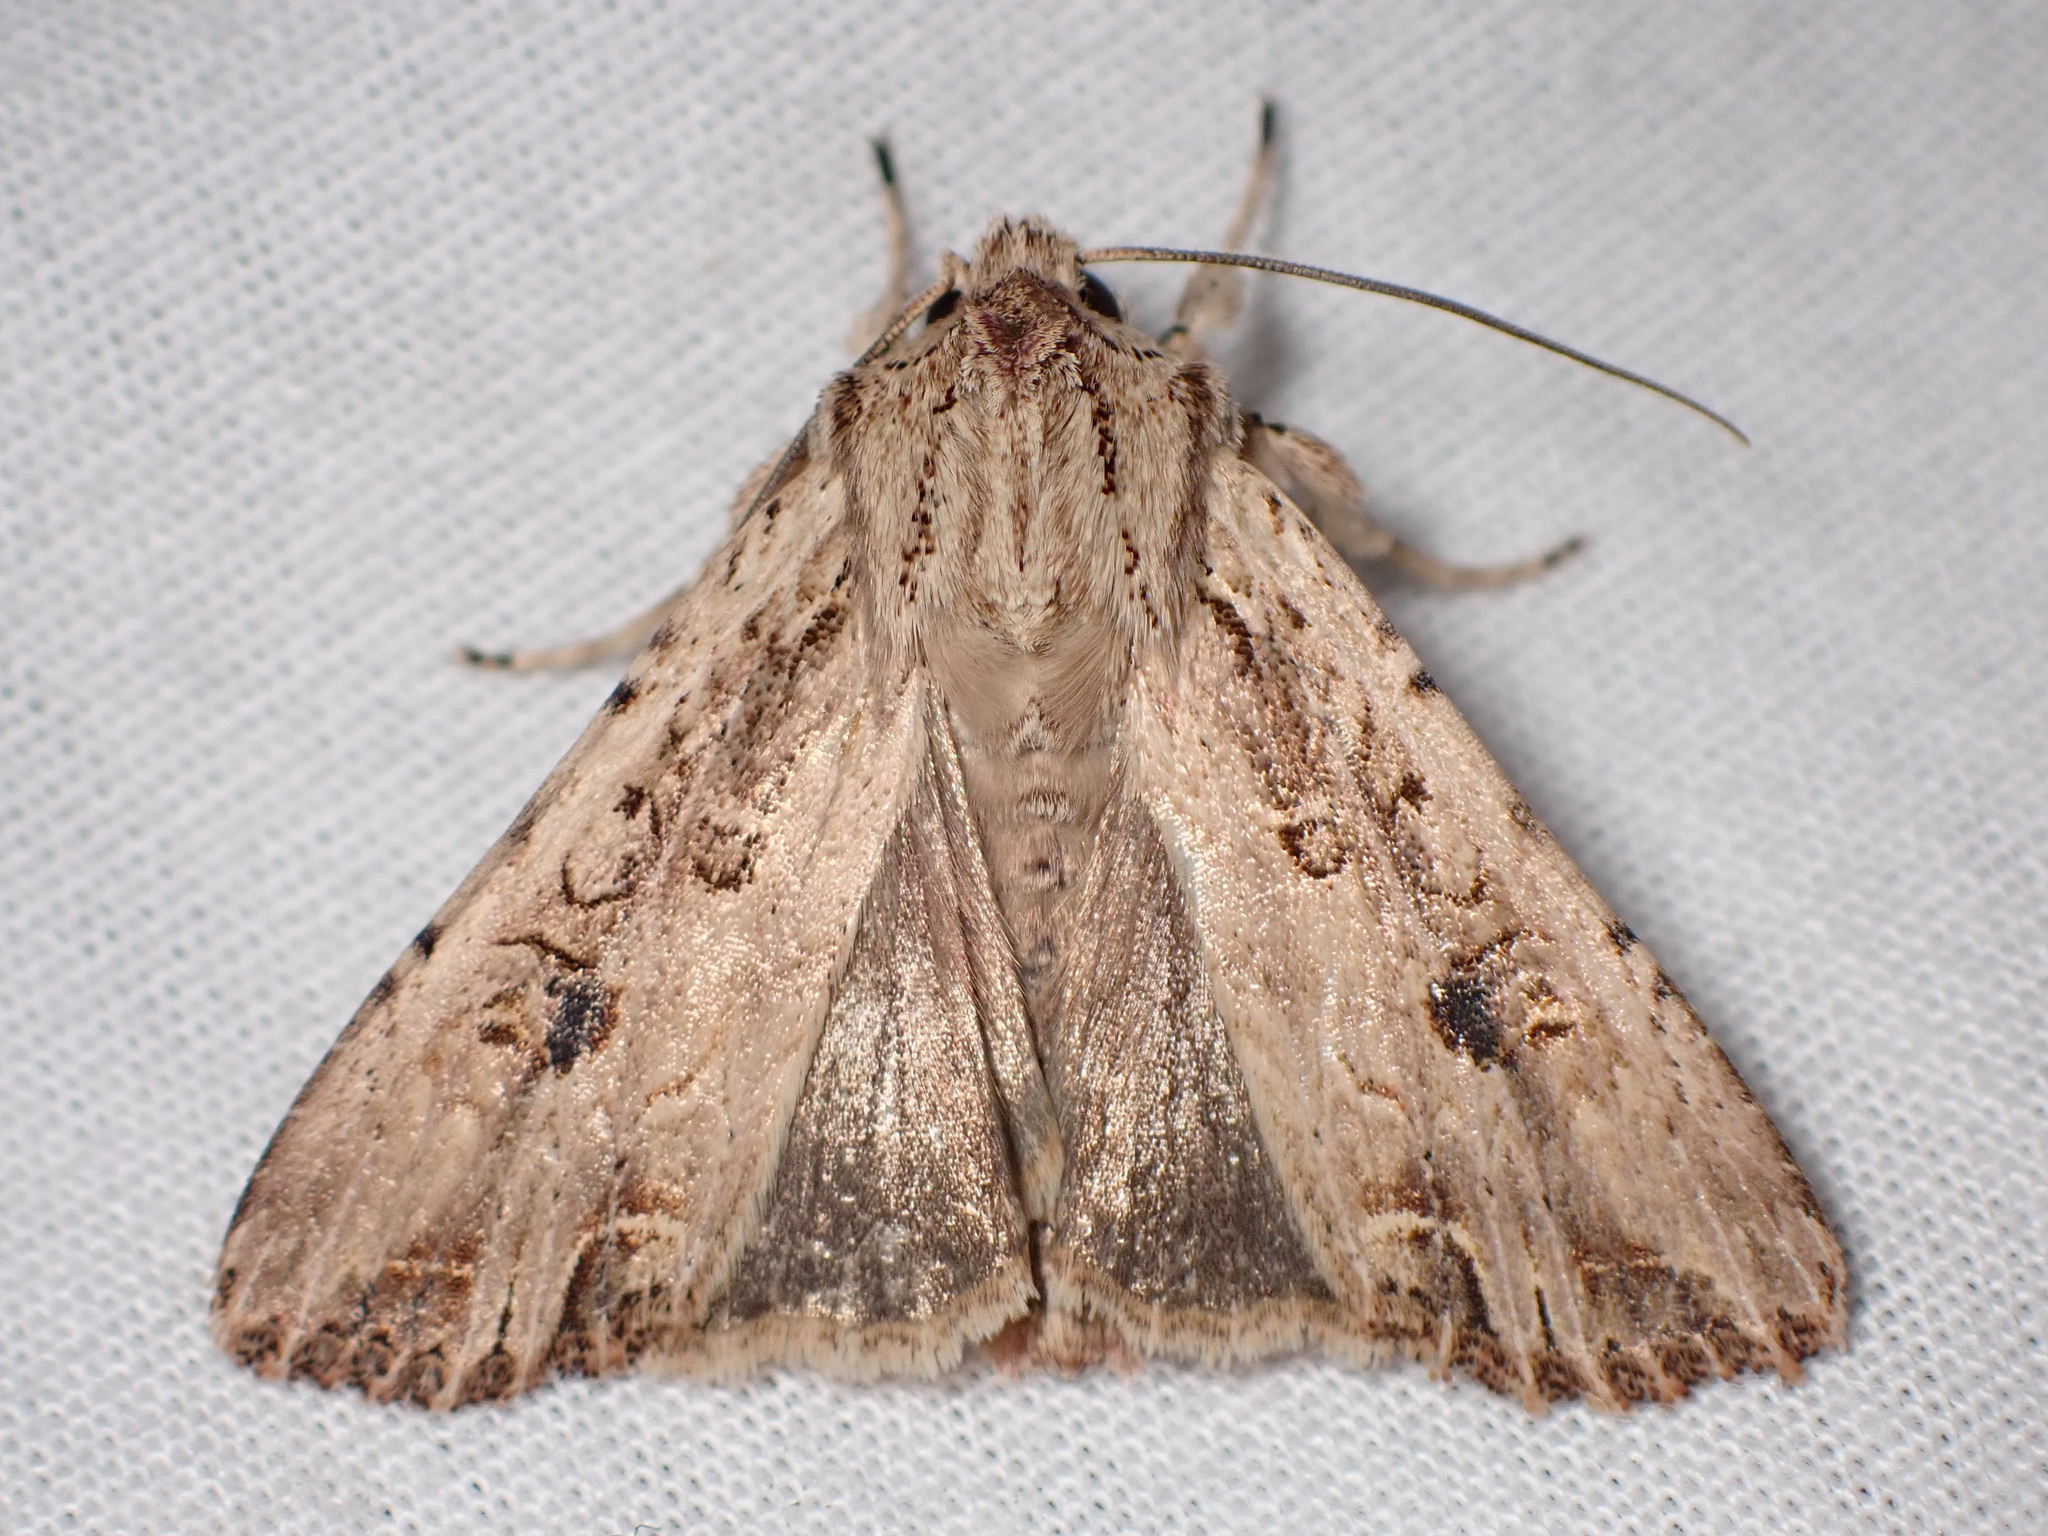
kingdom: Animalia
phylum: Arthropoda
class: Insecta
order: Lepidoptera
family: Noctuidae
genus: Ichneutica
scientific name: Ichneutica lignana
